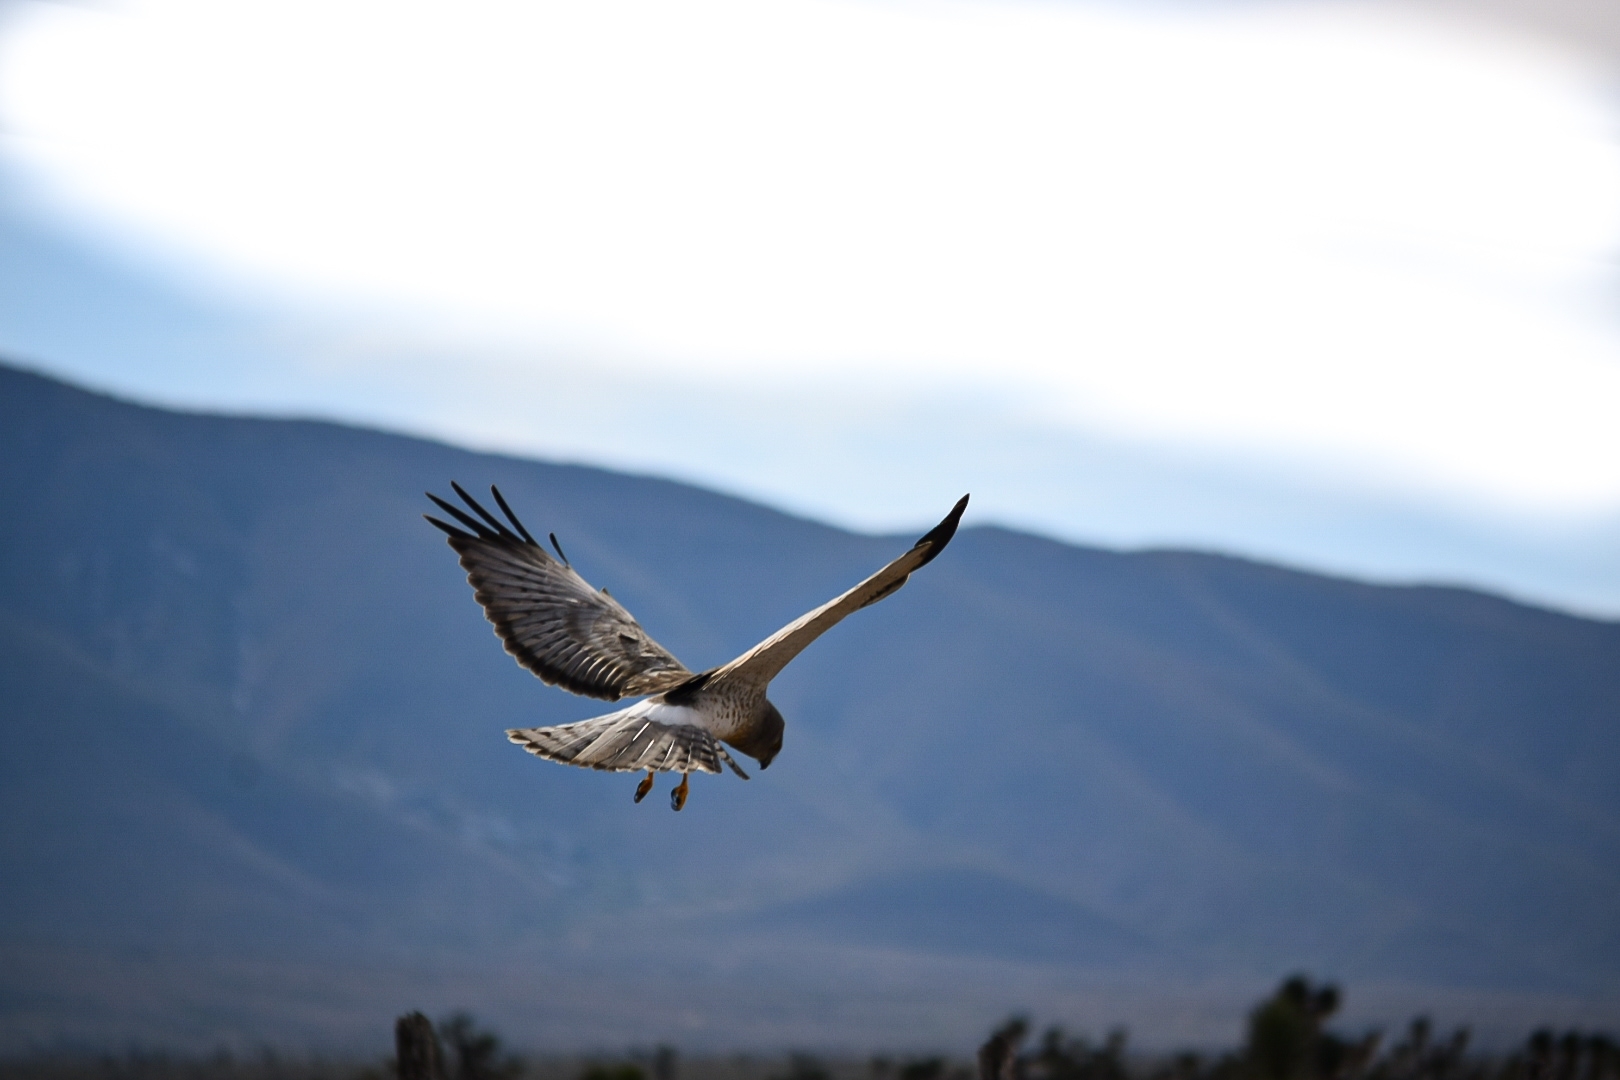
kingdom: Animalia
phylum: Chordata
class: Aves
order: Accipitriformes
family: Accipitridae
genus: Circus
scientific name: Circus cyaneus
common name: Hen harrier
